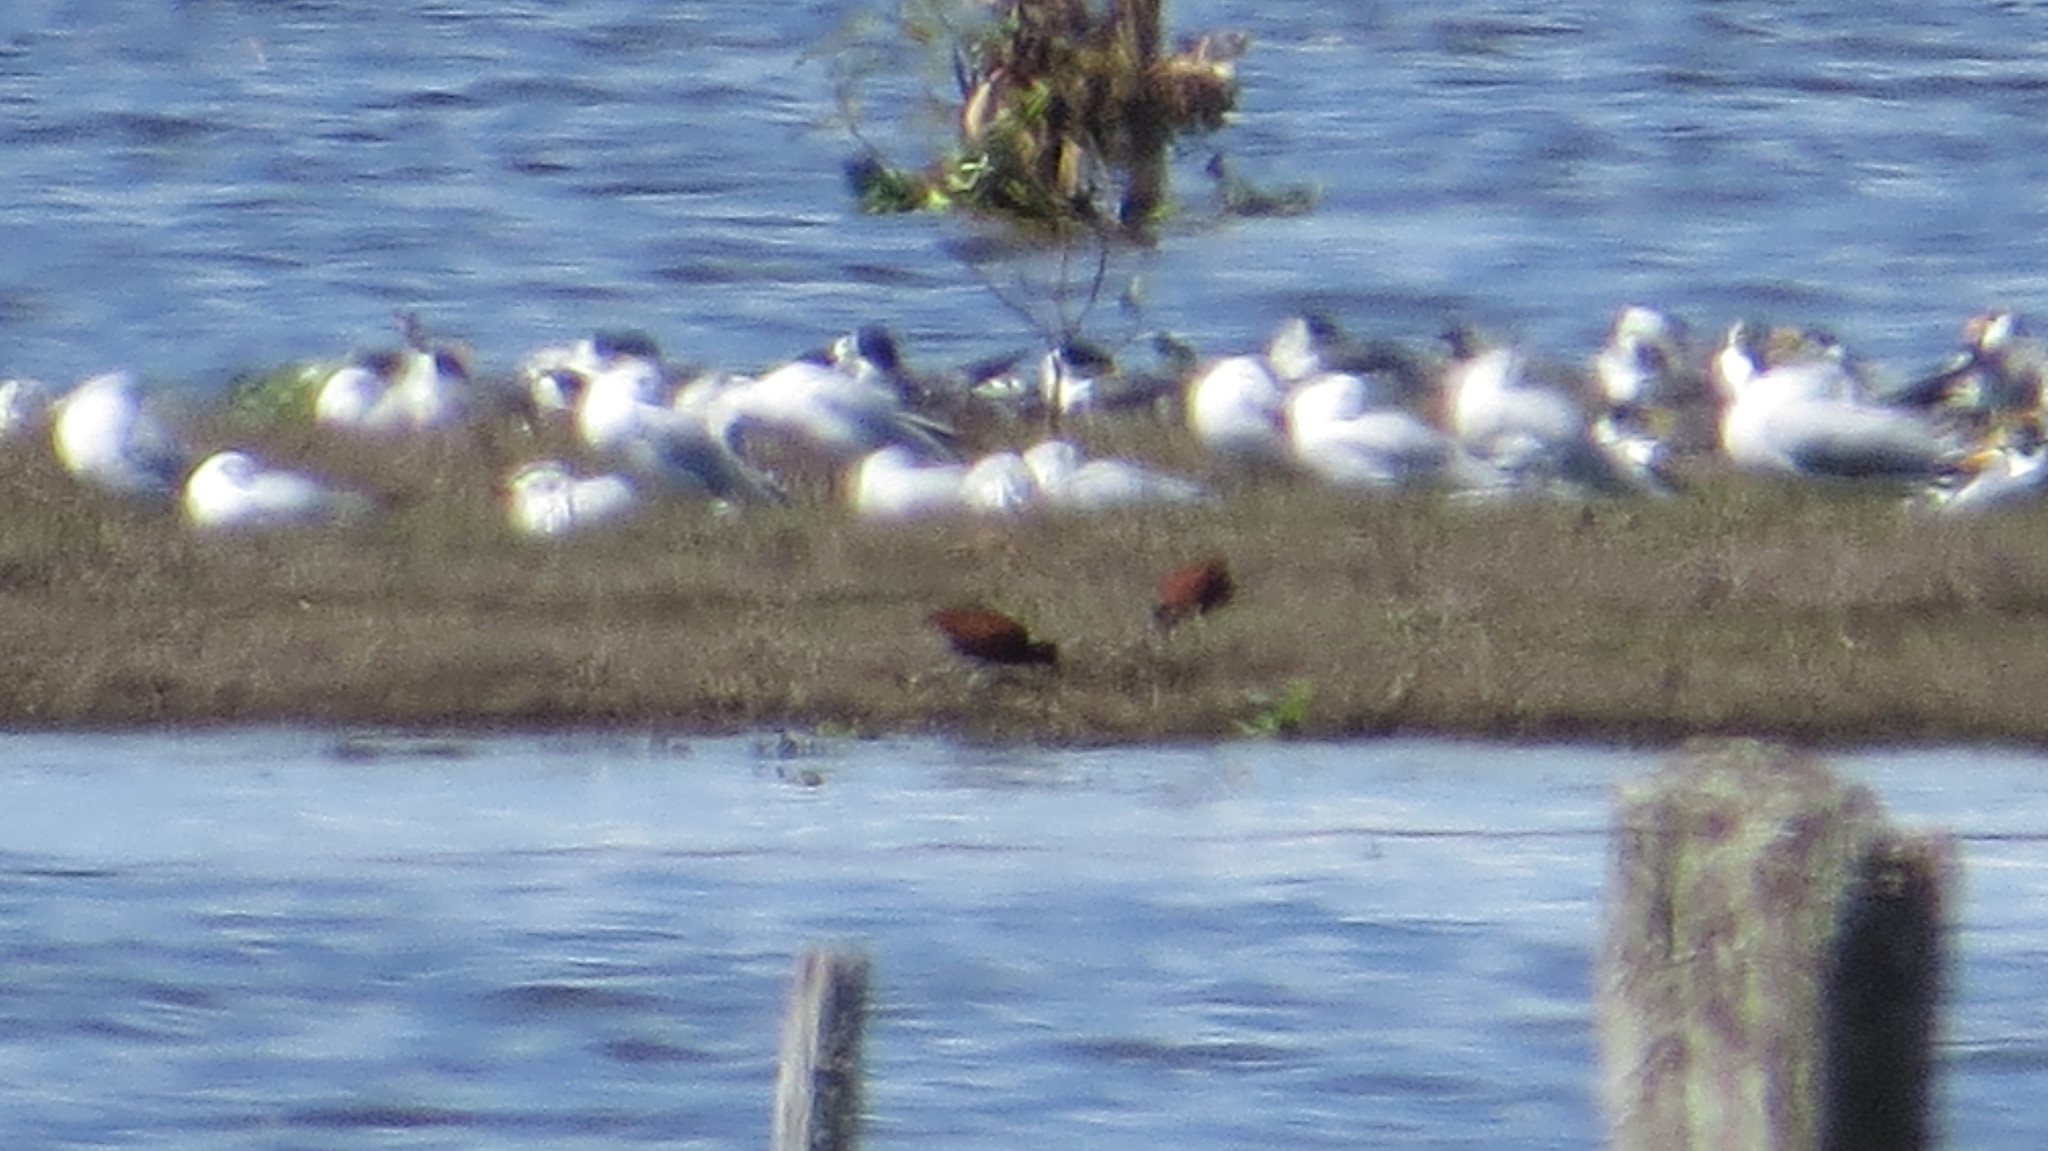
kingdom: Animalia
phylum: Chordata
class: Aves
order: Charadriiformes
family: Jacanidae
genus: Jacana
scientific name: Jacana jacana
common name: Wattled jacana
